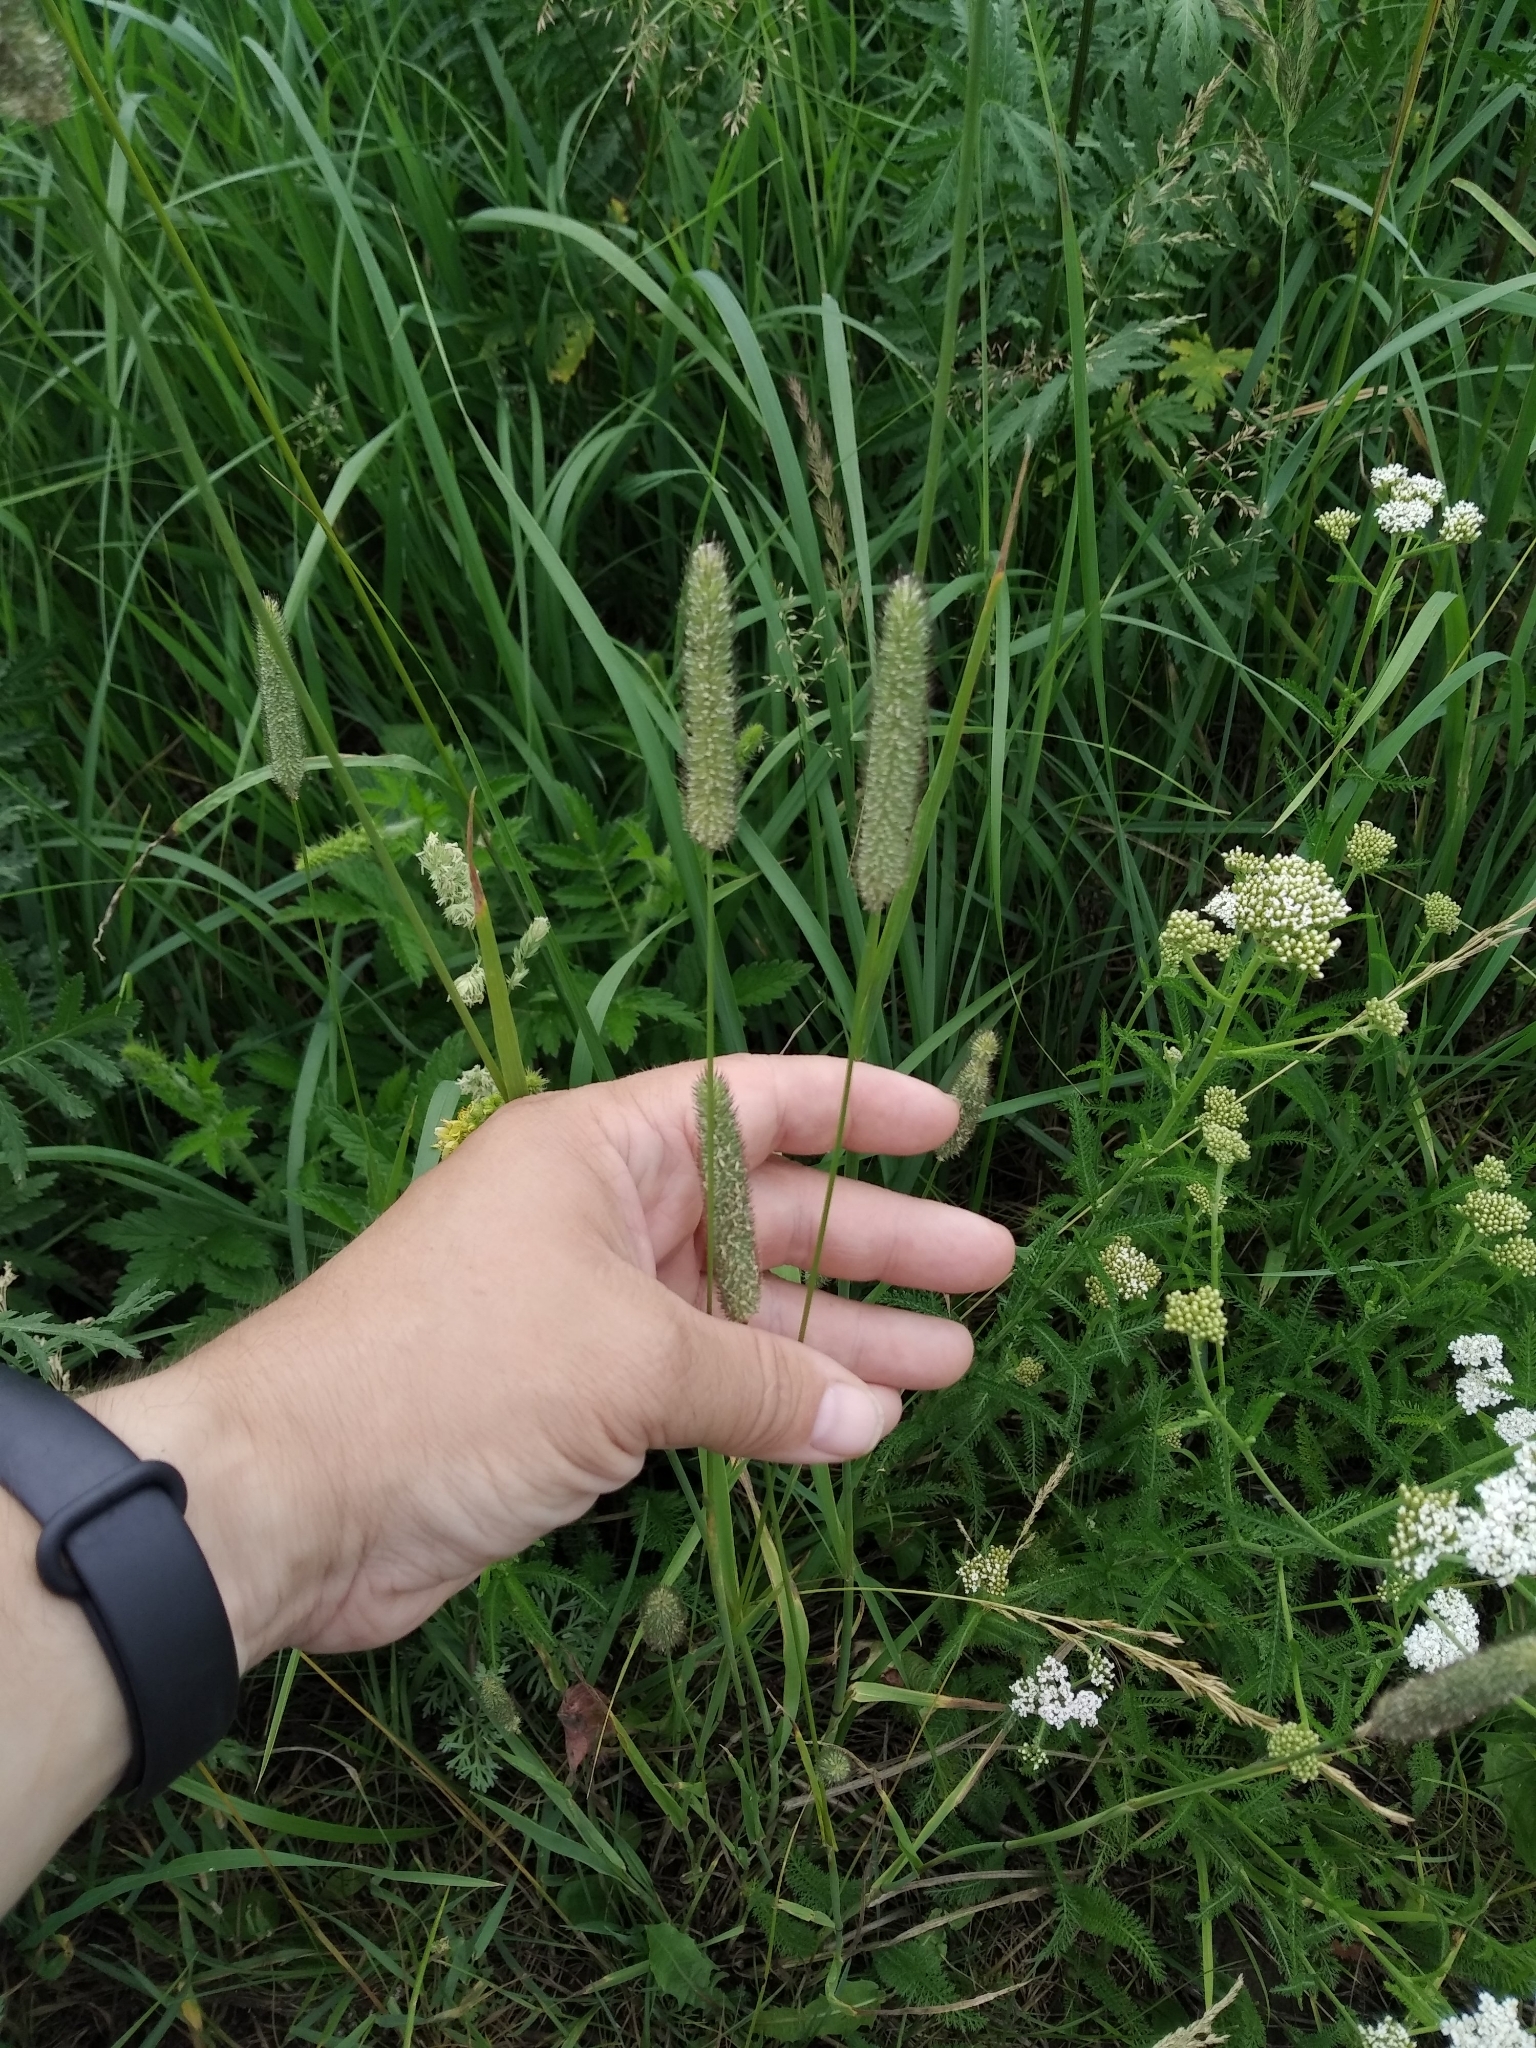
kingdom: Plantae
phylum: Tracheophyta
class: Liliopsida
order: Poales
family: Poaceae
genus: Phleum
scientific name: Phleum pratense
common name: Timothy grass
